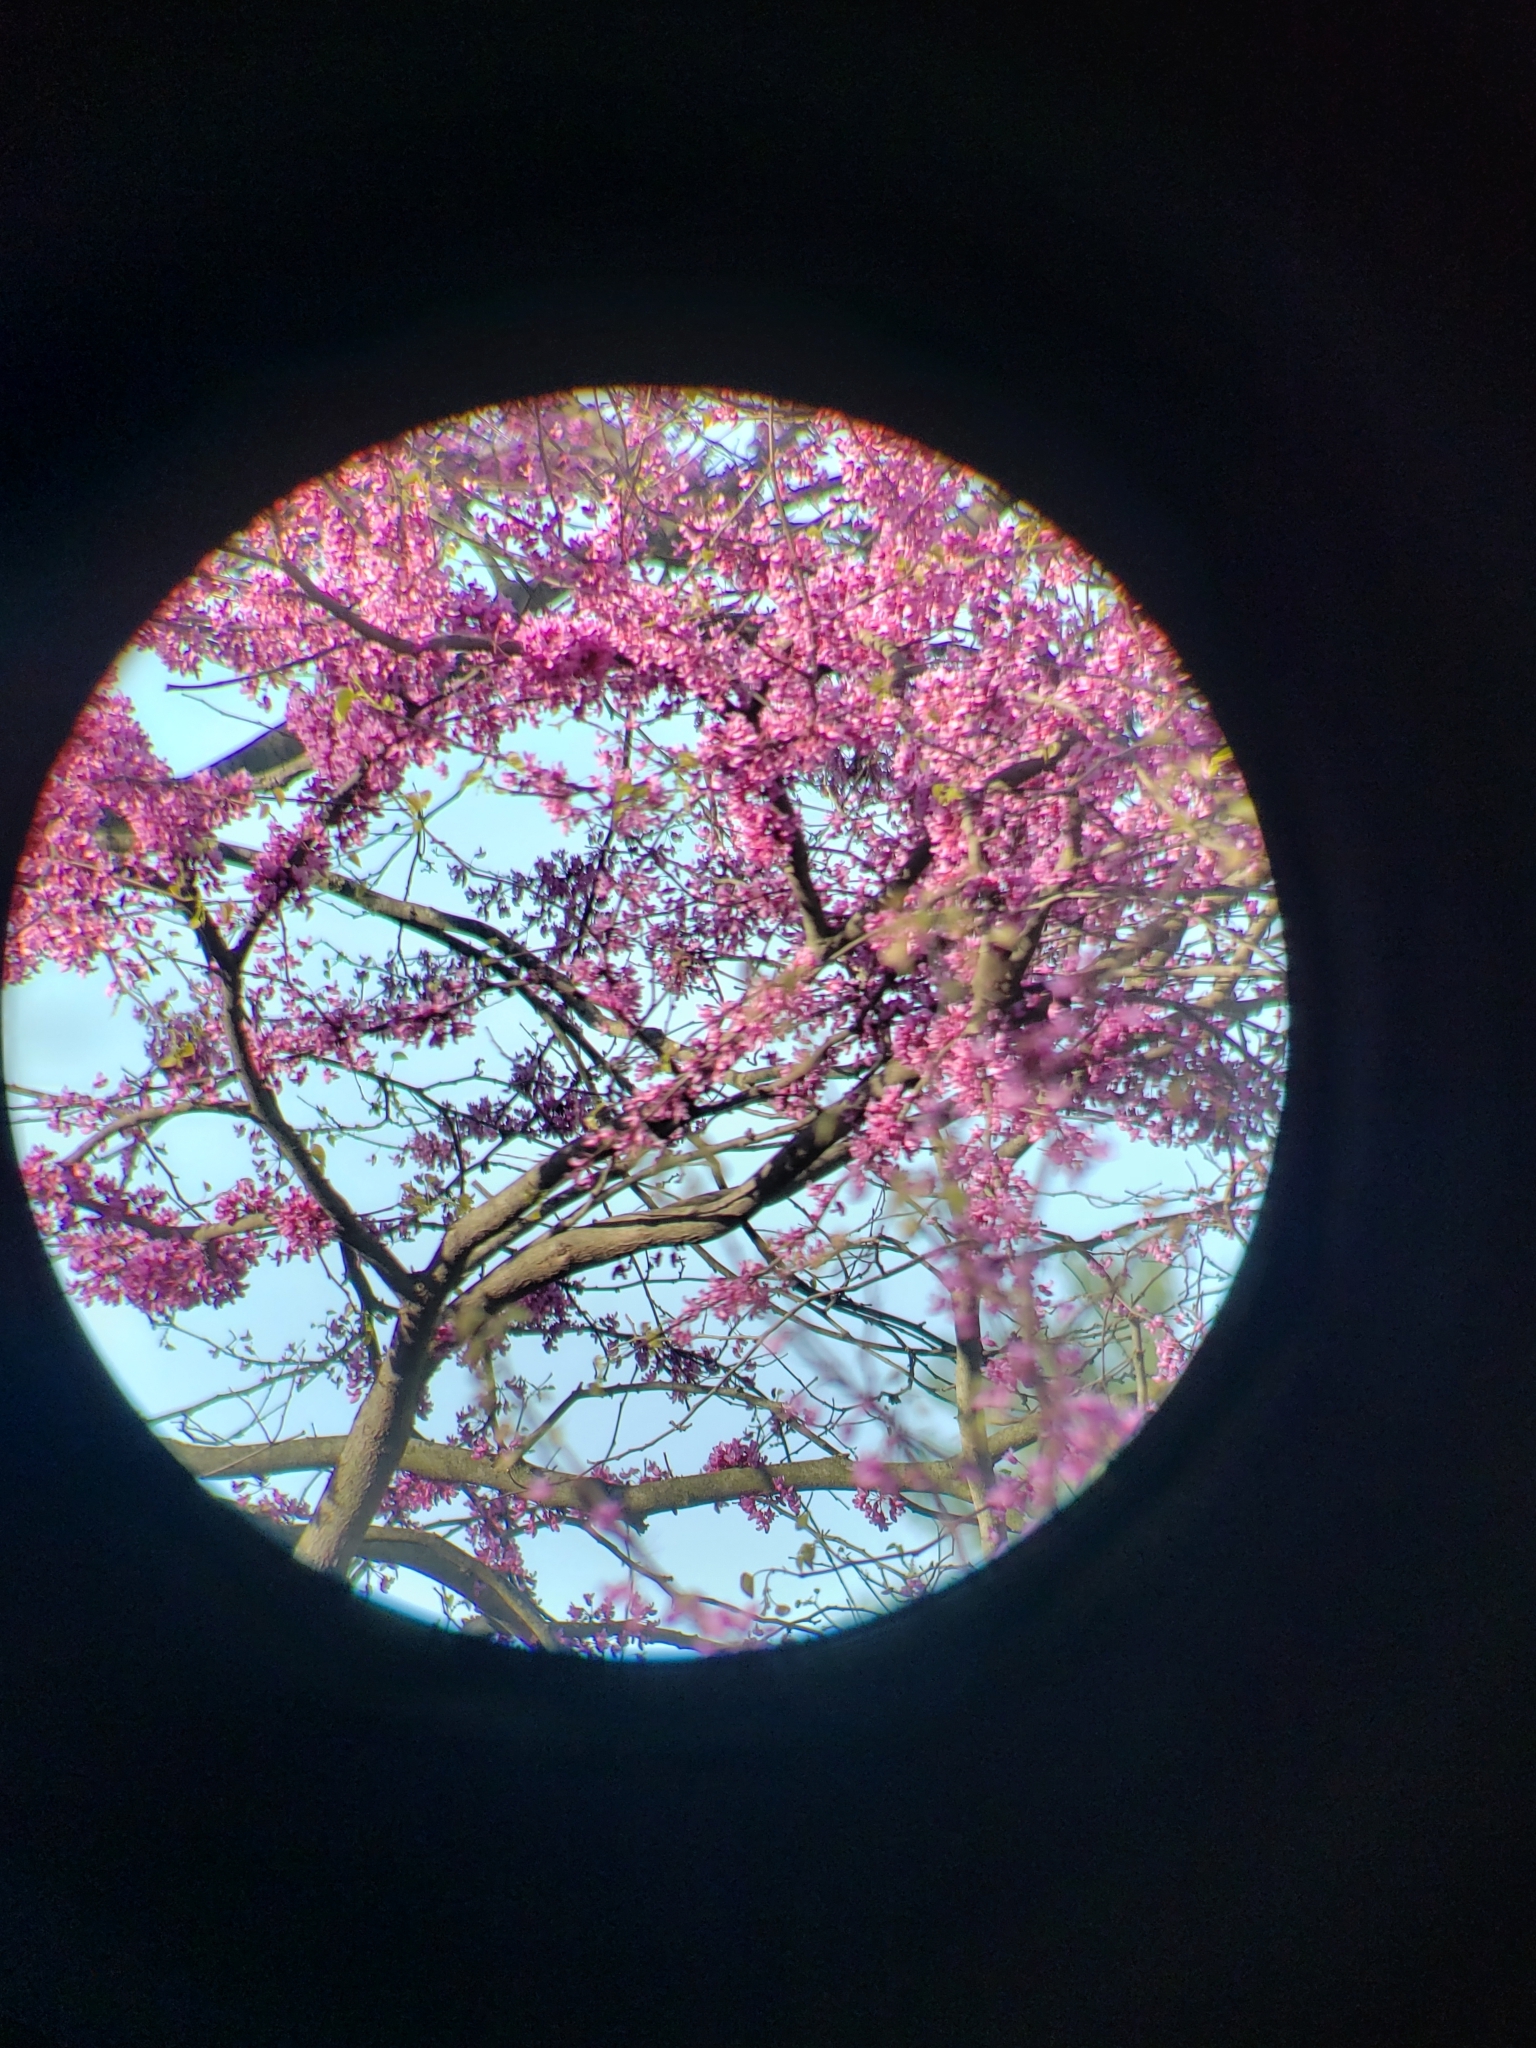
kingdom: Plantae
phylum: Tracheophyta
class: Magnoliopsida
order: Fabales
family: Fabaceae
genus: Cercis
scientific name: Cercis canadensis
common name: Eastern redbud
